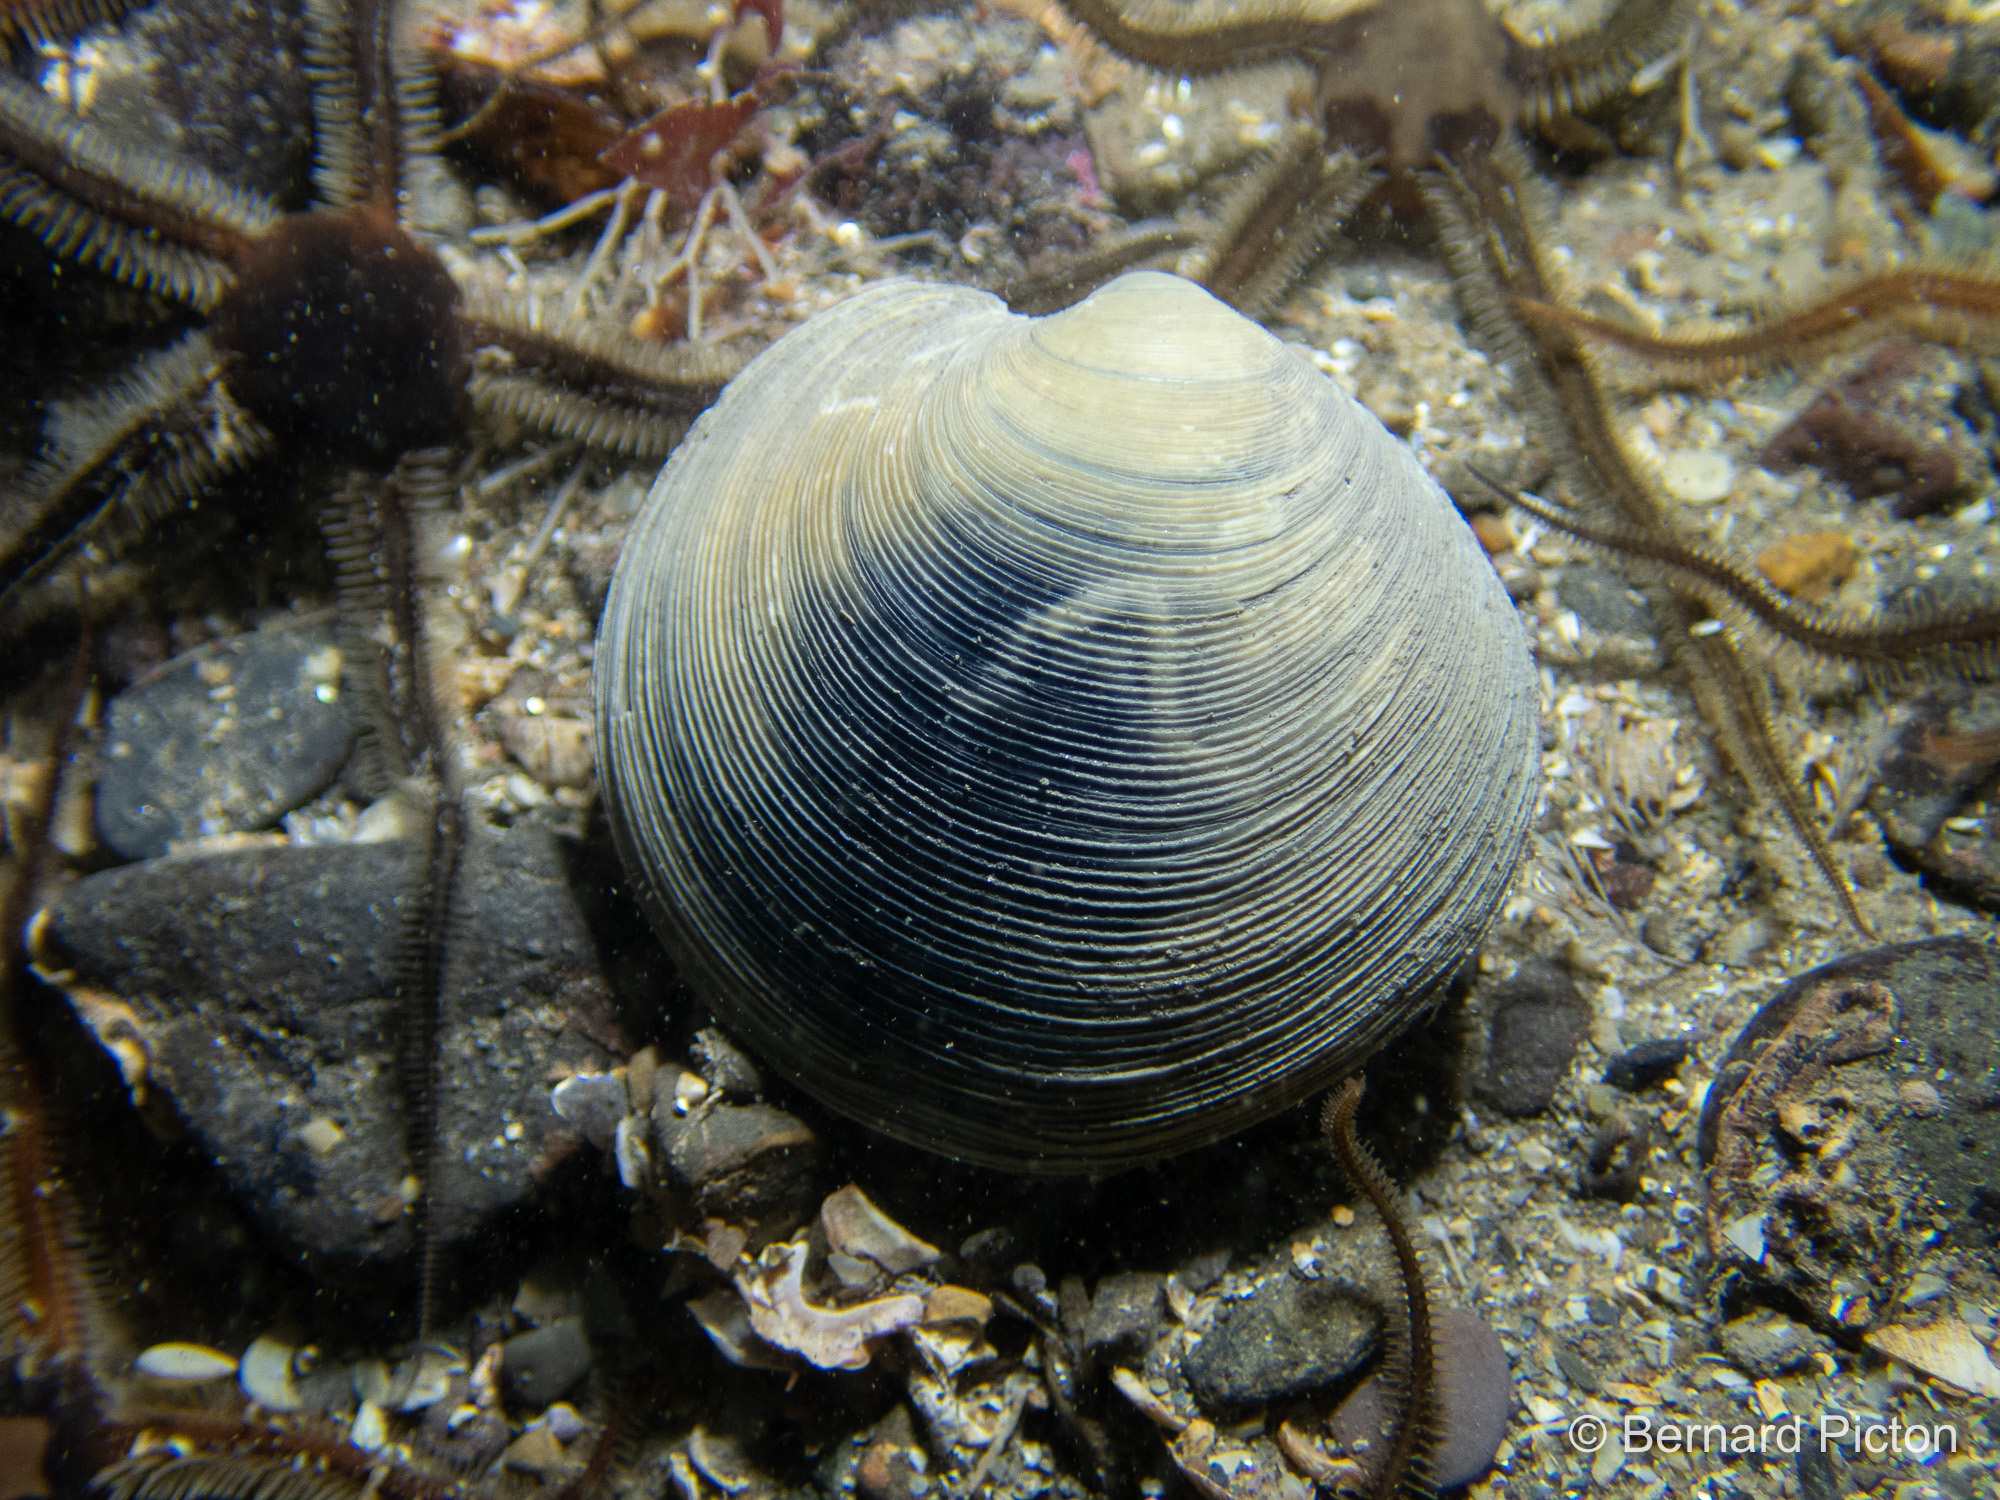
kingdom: Animalia
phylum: Mollusca
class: Bivalvia
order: Venerida
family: Veneridae
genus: Dosinia
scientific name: Dosinia exoleta
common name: Rayed artemis
